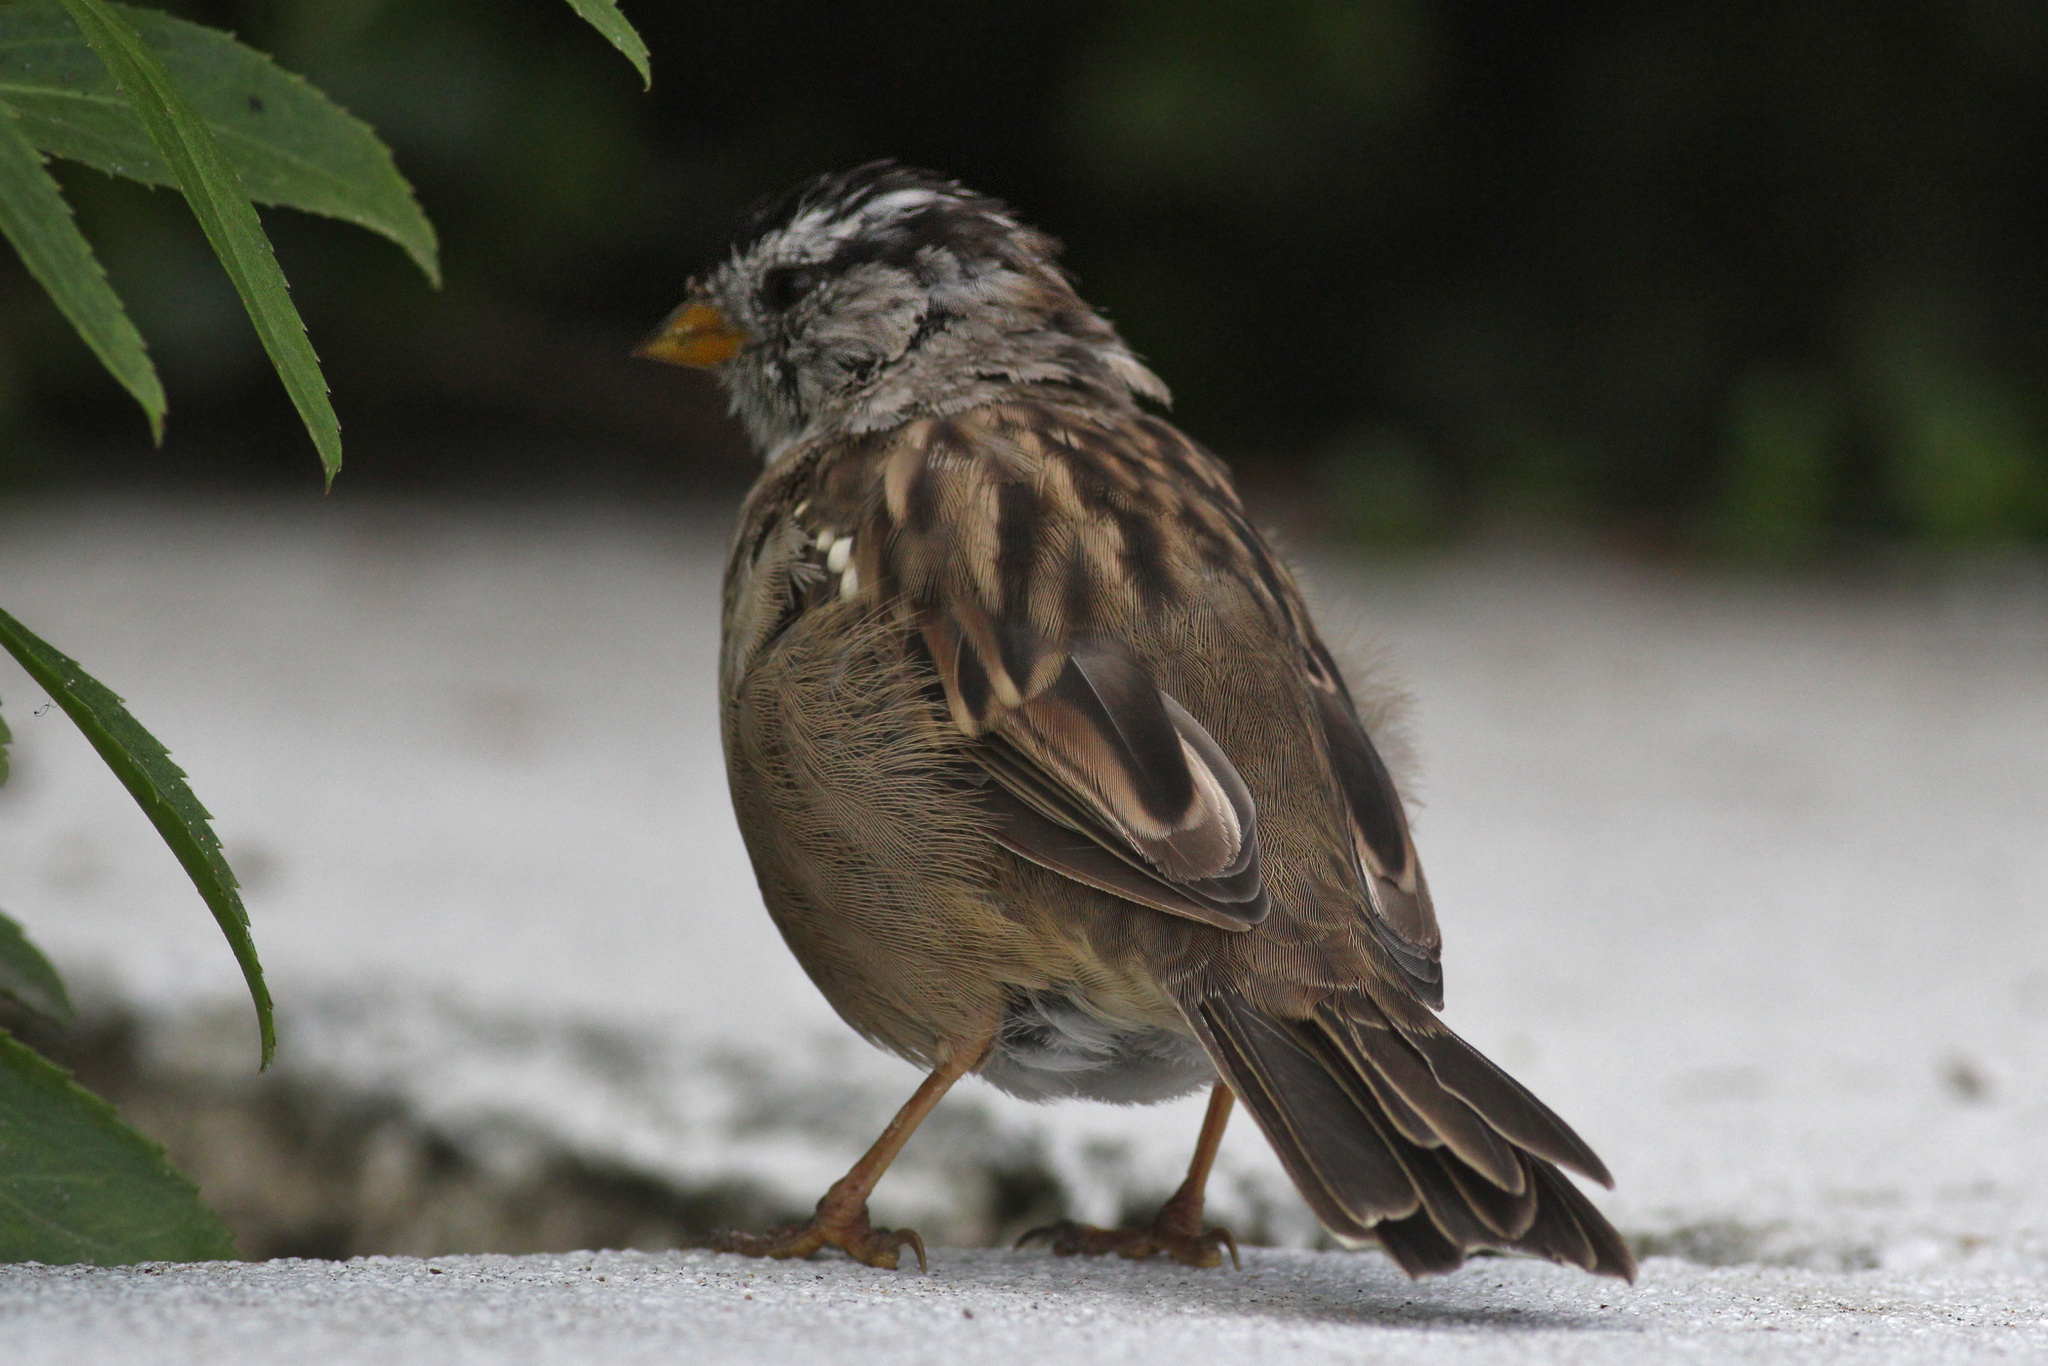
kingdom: Animalia
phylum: Chordata
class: Aves
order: Passeriformes
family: Passerellidae
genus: Zonotrichia
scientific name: Zonotrichia leucophrys
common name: White-crowned sparrow
